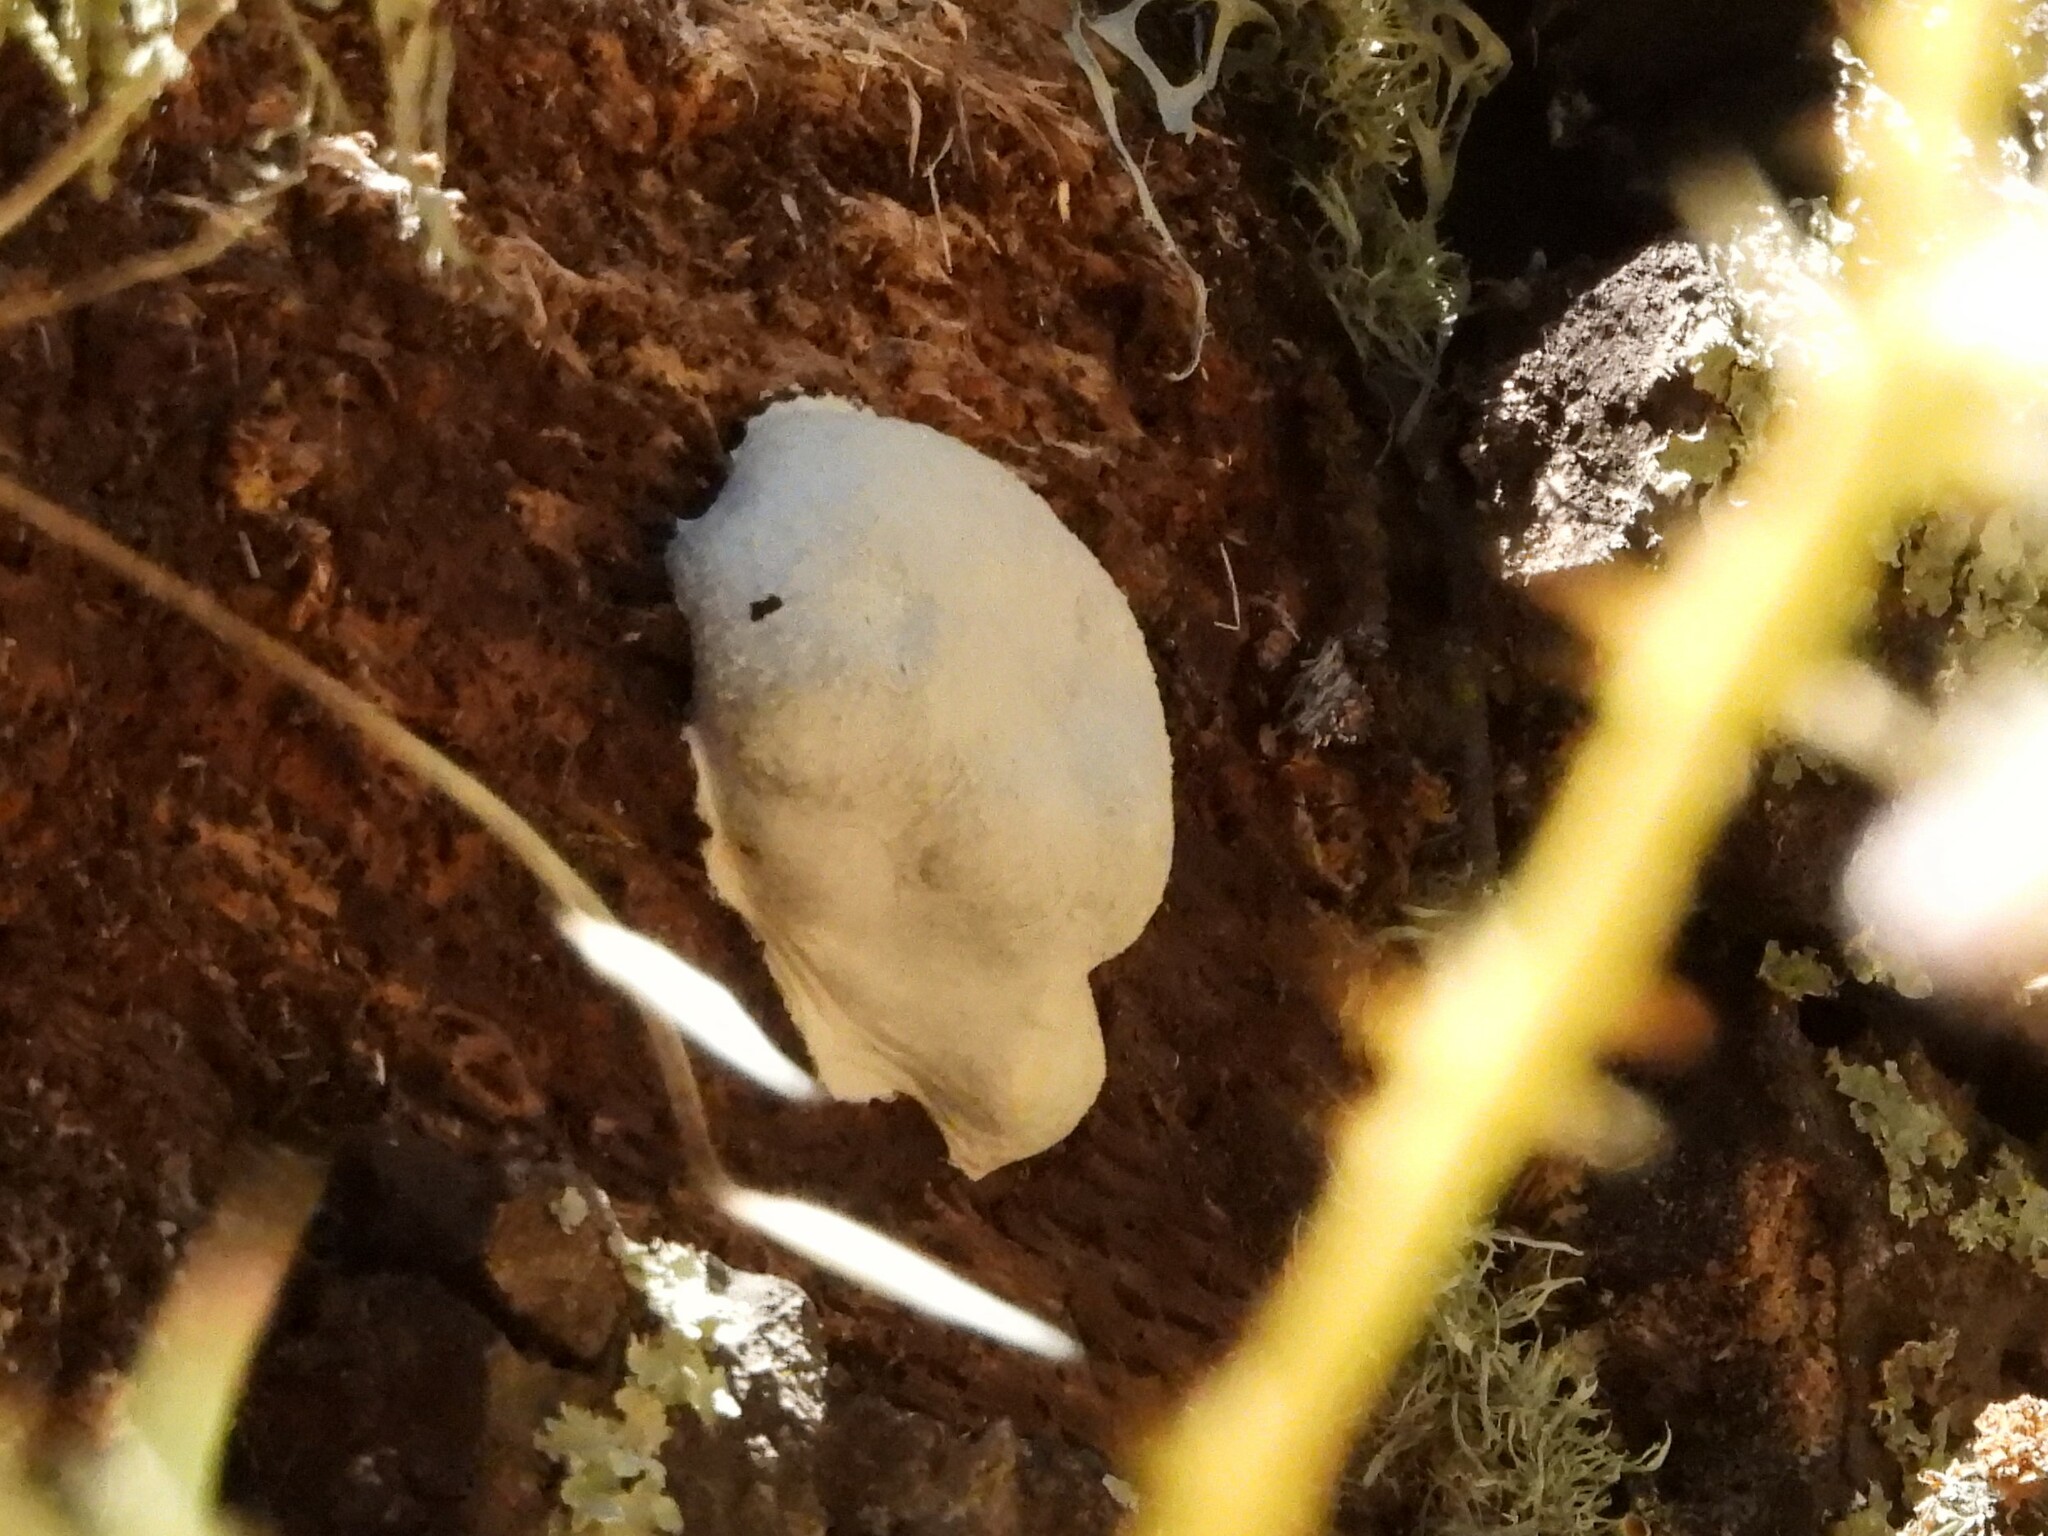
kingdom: Protozoa
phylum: Mycetozoa
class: Myxomycetes
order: Cribrariales
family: Tubiferaceae
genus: Reticularia
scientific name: Reticularia lycoperdon
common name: False puffball
